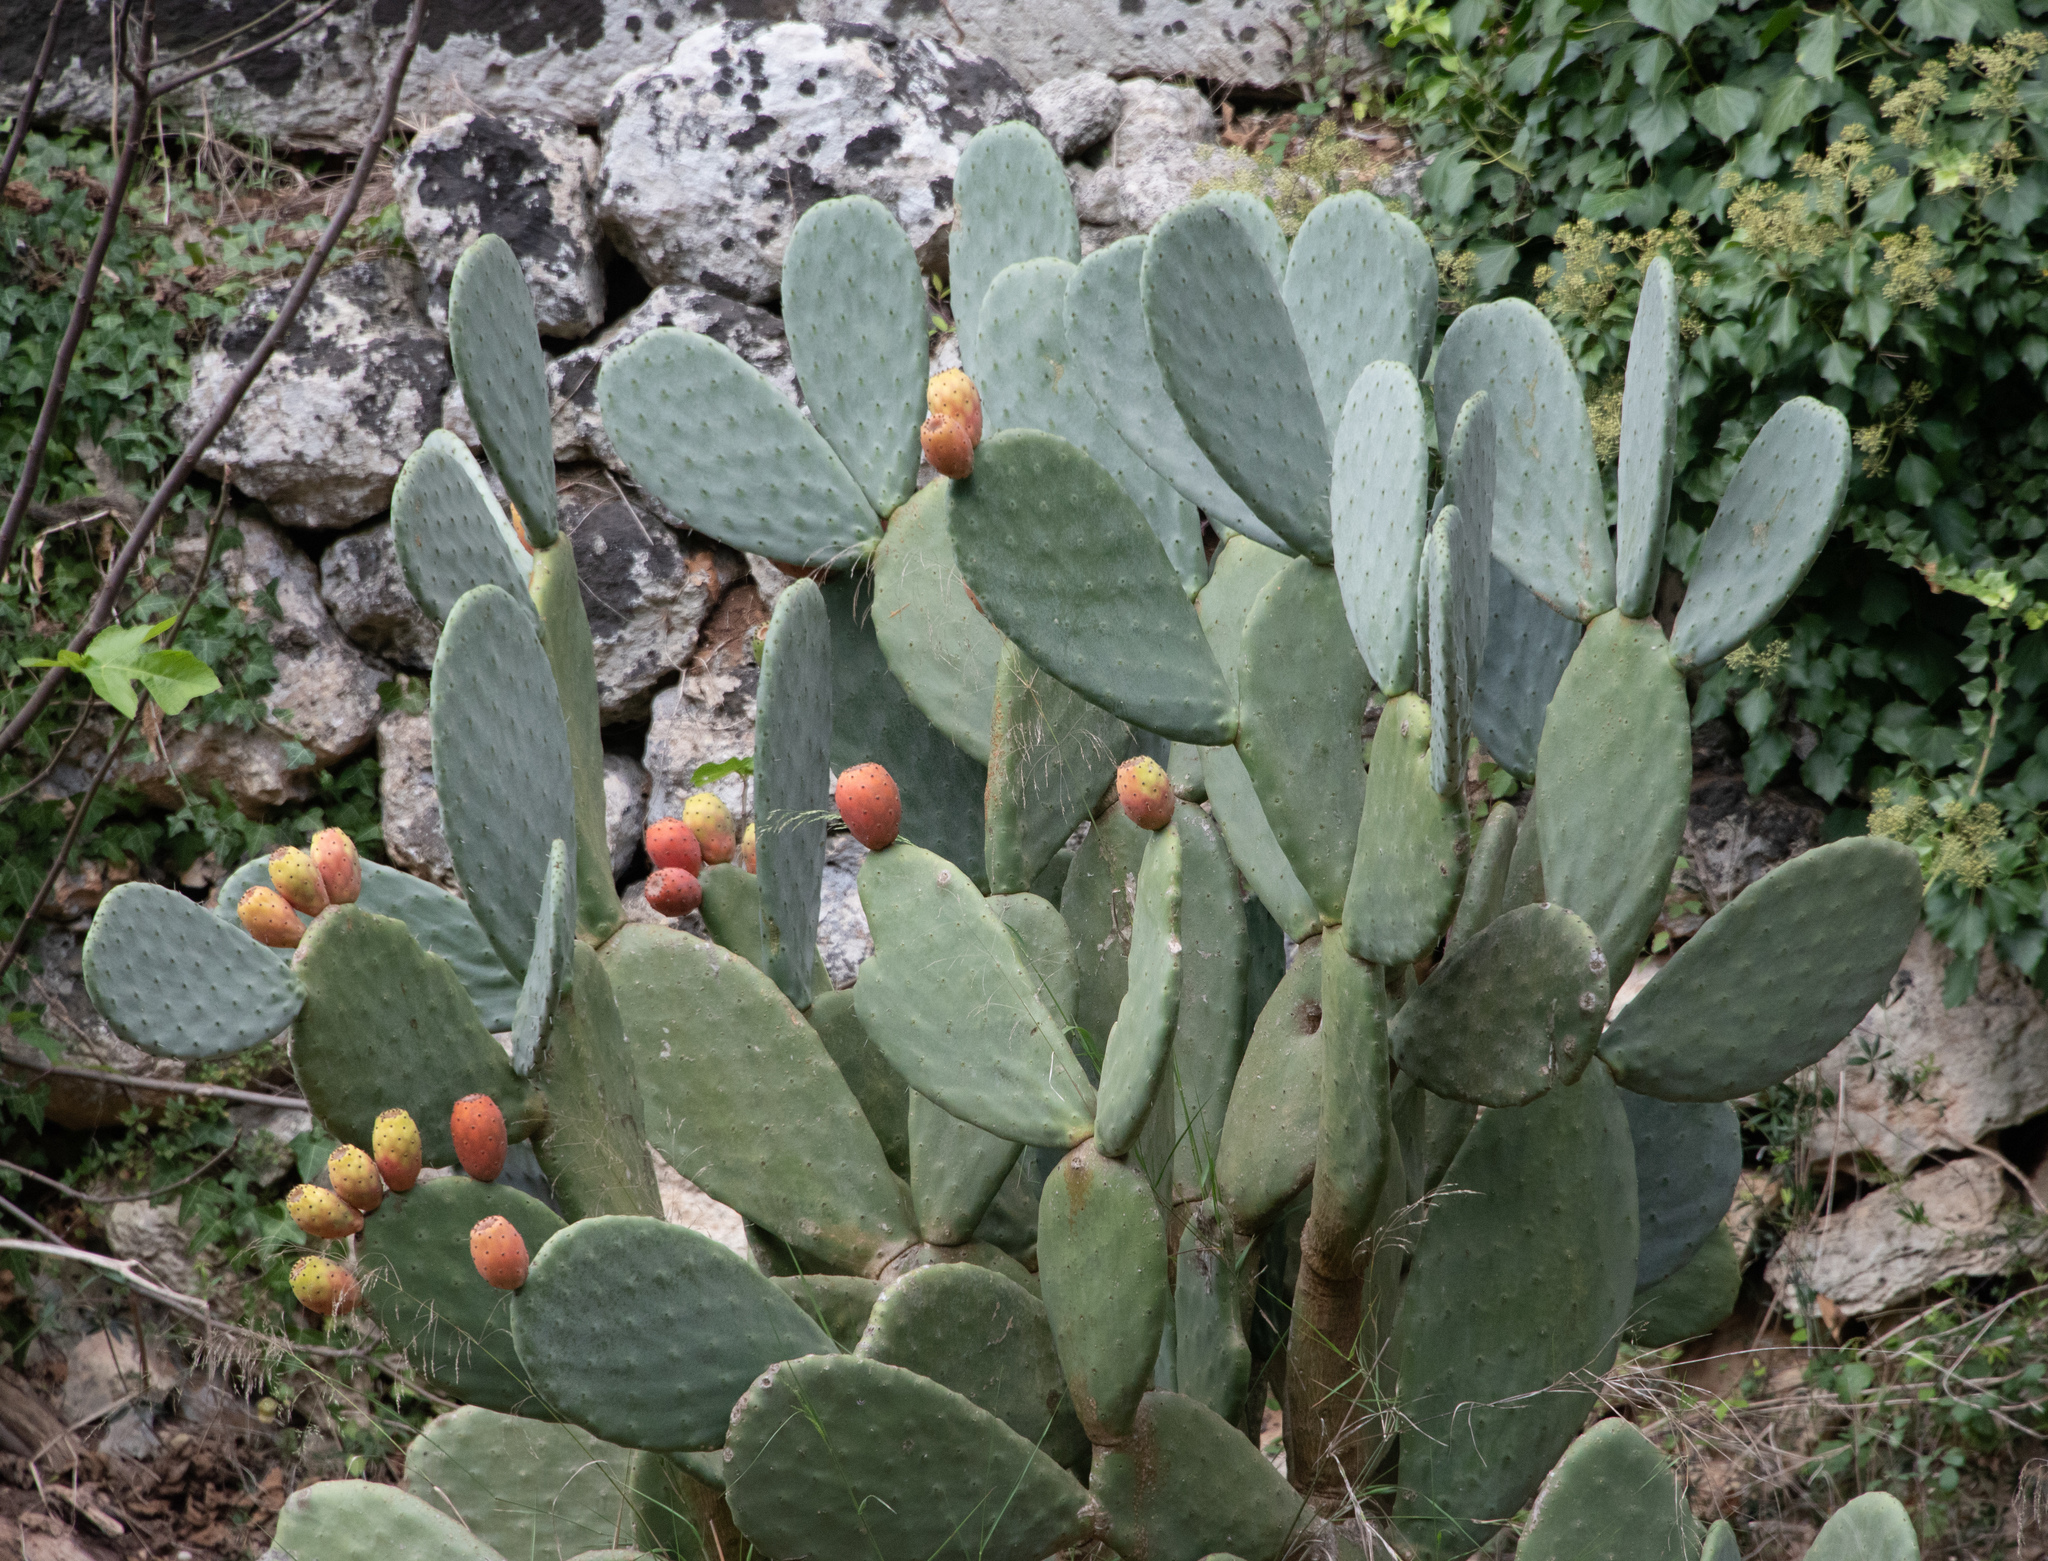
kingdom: Plantae
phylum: Tracheophyta
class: Magnoliopsida
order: Caryophyllales
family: Cactaceae
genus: Opuntia
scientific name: Opuntia ficus-indica
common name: Barbary fig
